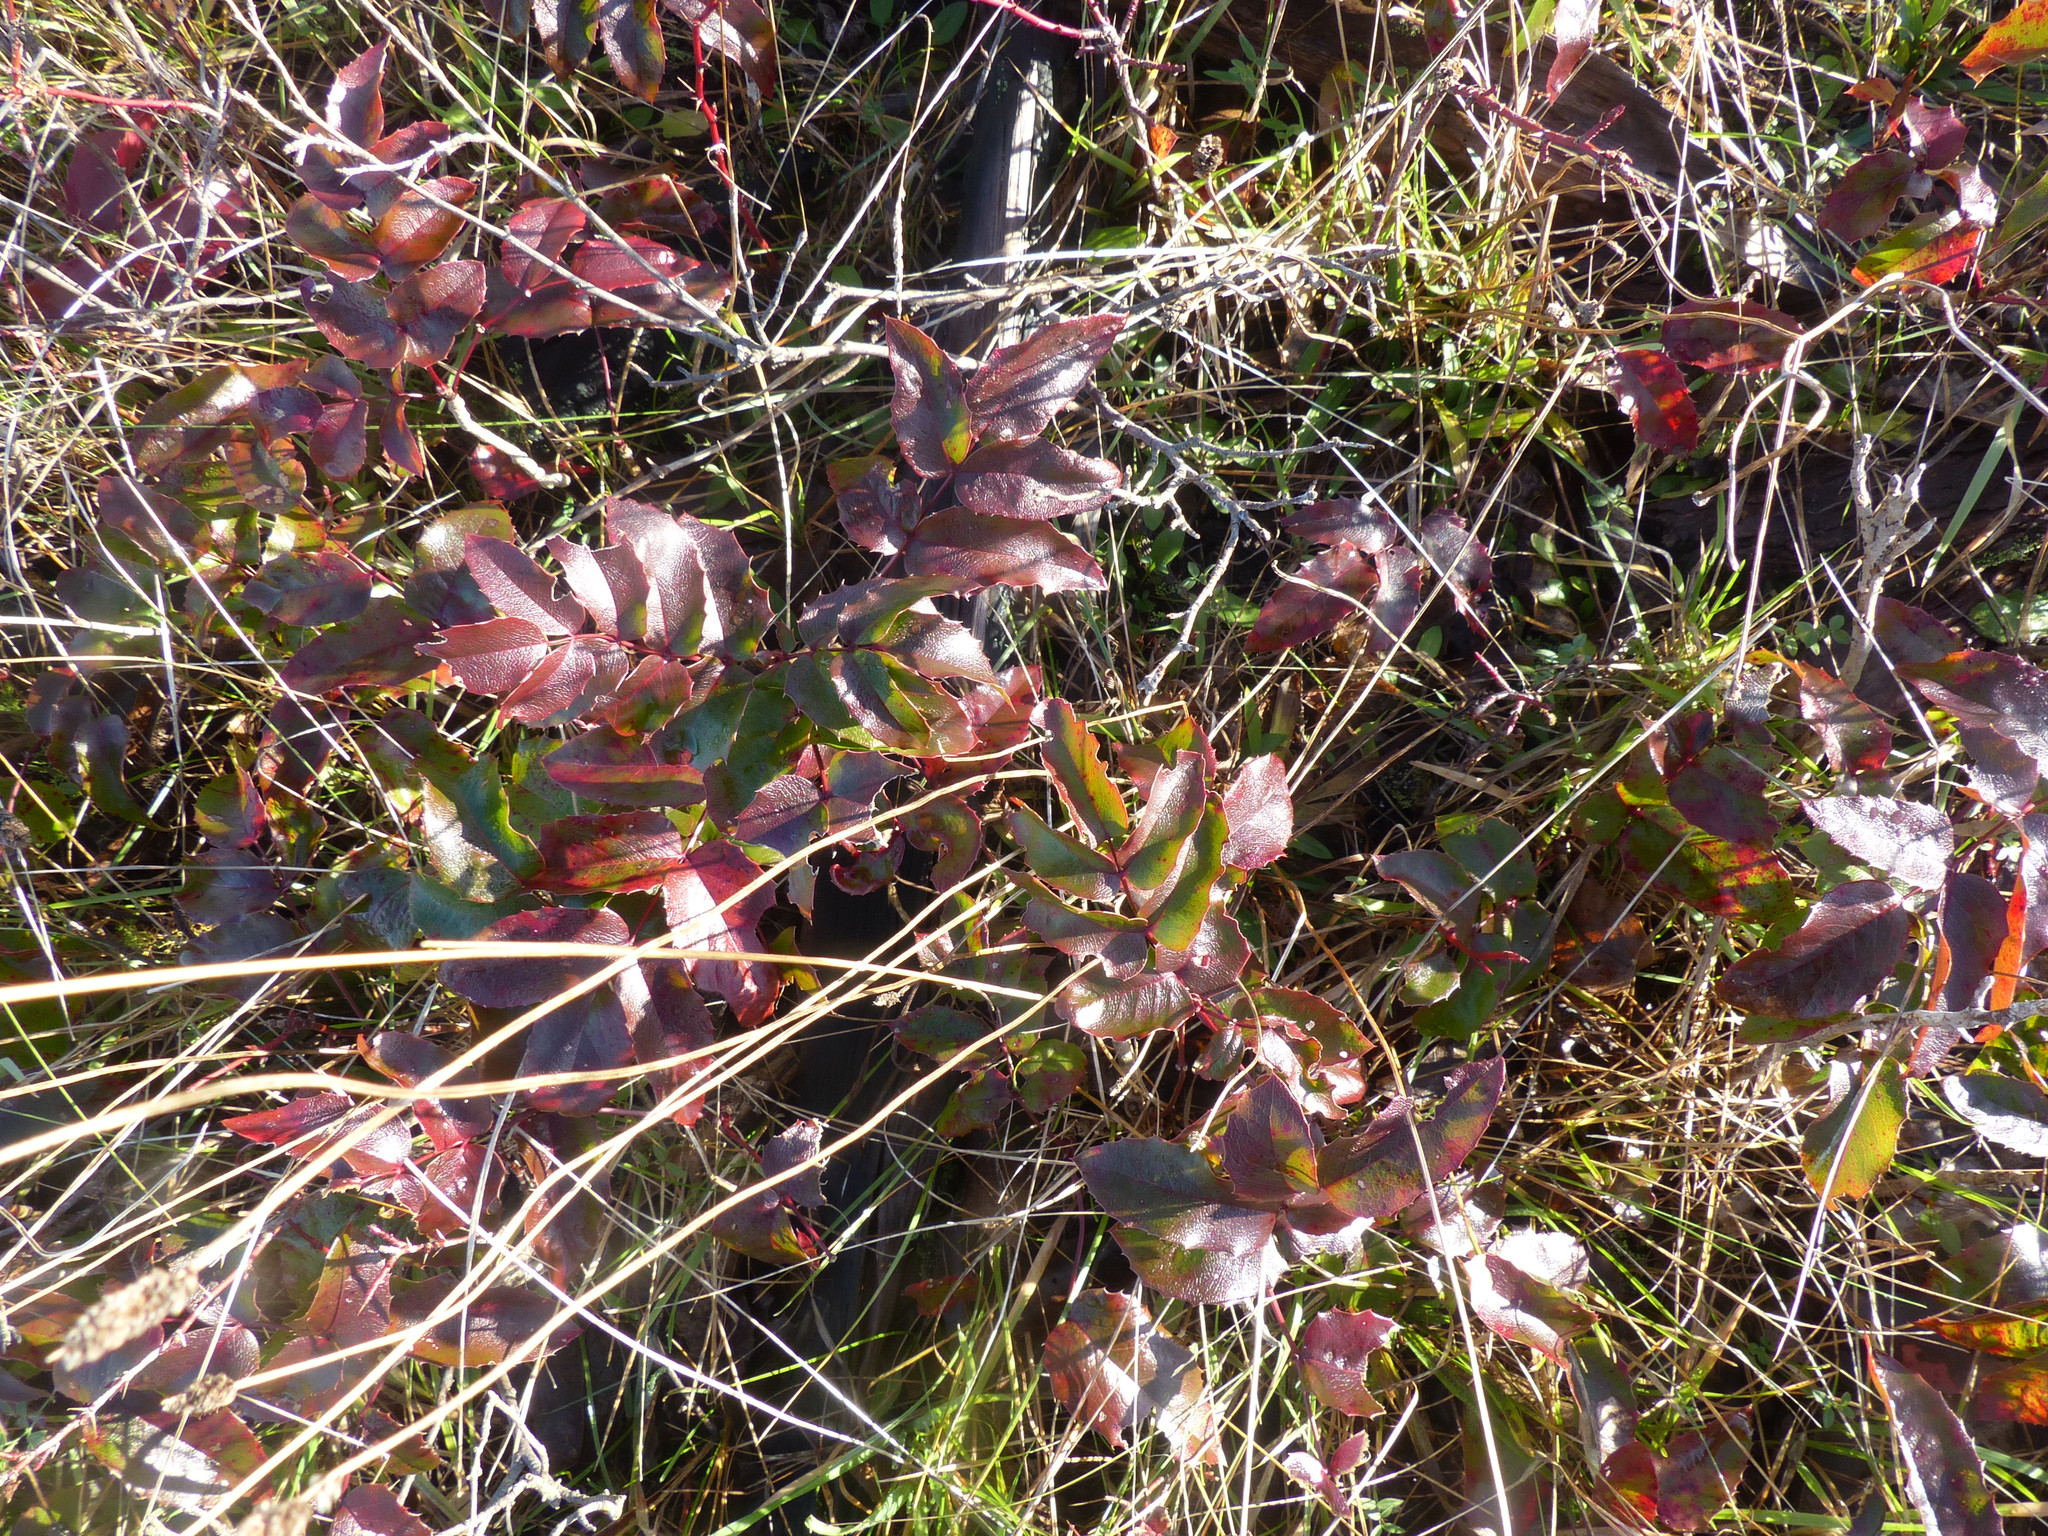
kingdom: Plantae
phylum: Tracheophyta
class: Magnoliopsida
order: Ranunculales
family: Berberidaceae
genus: Mahonia
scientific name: Mahonia aquifolium
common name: Oregon-grape
